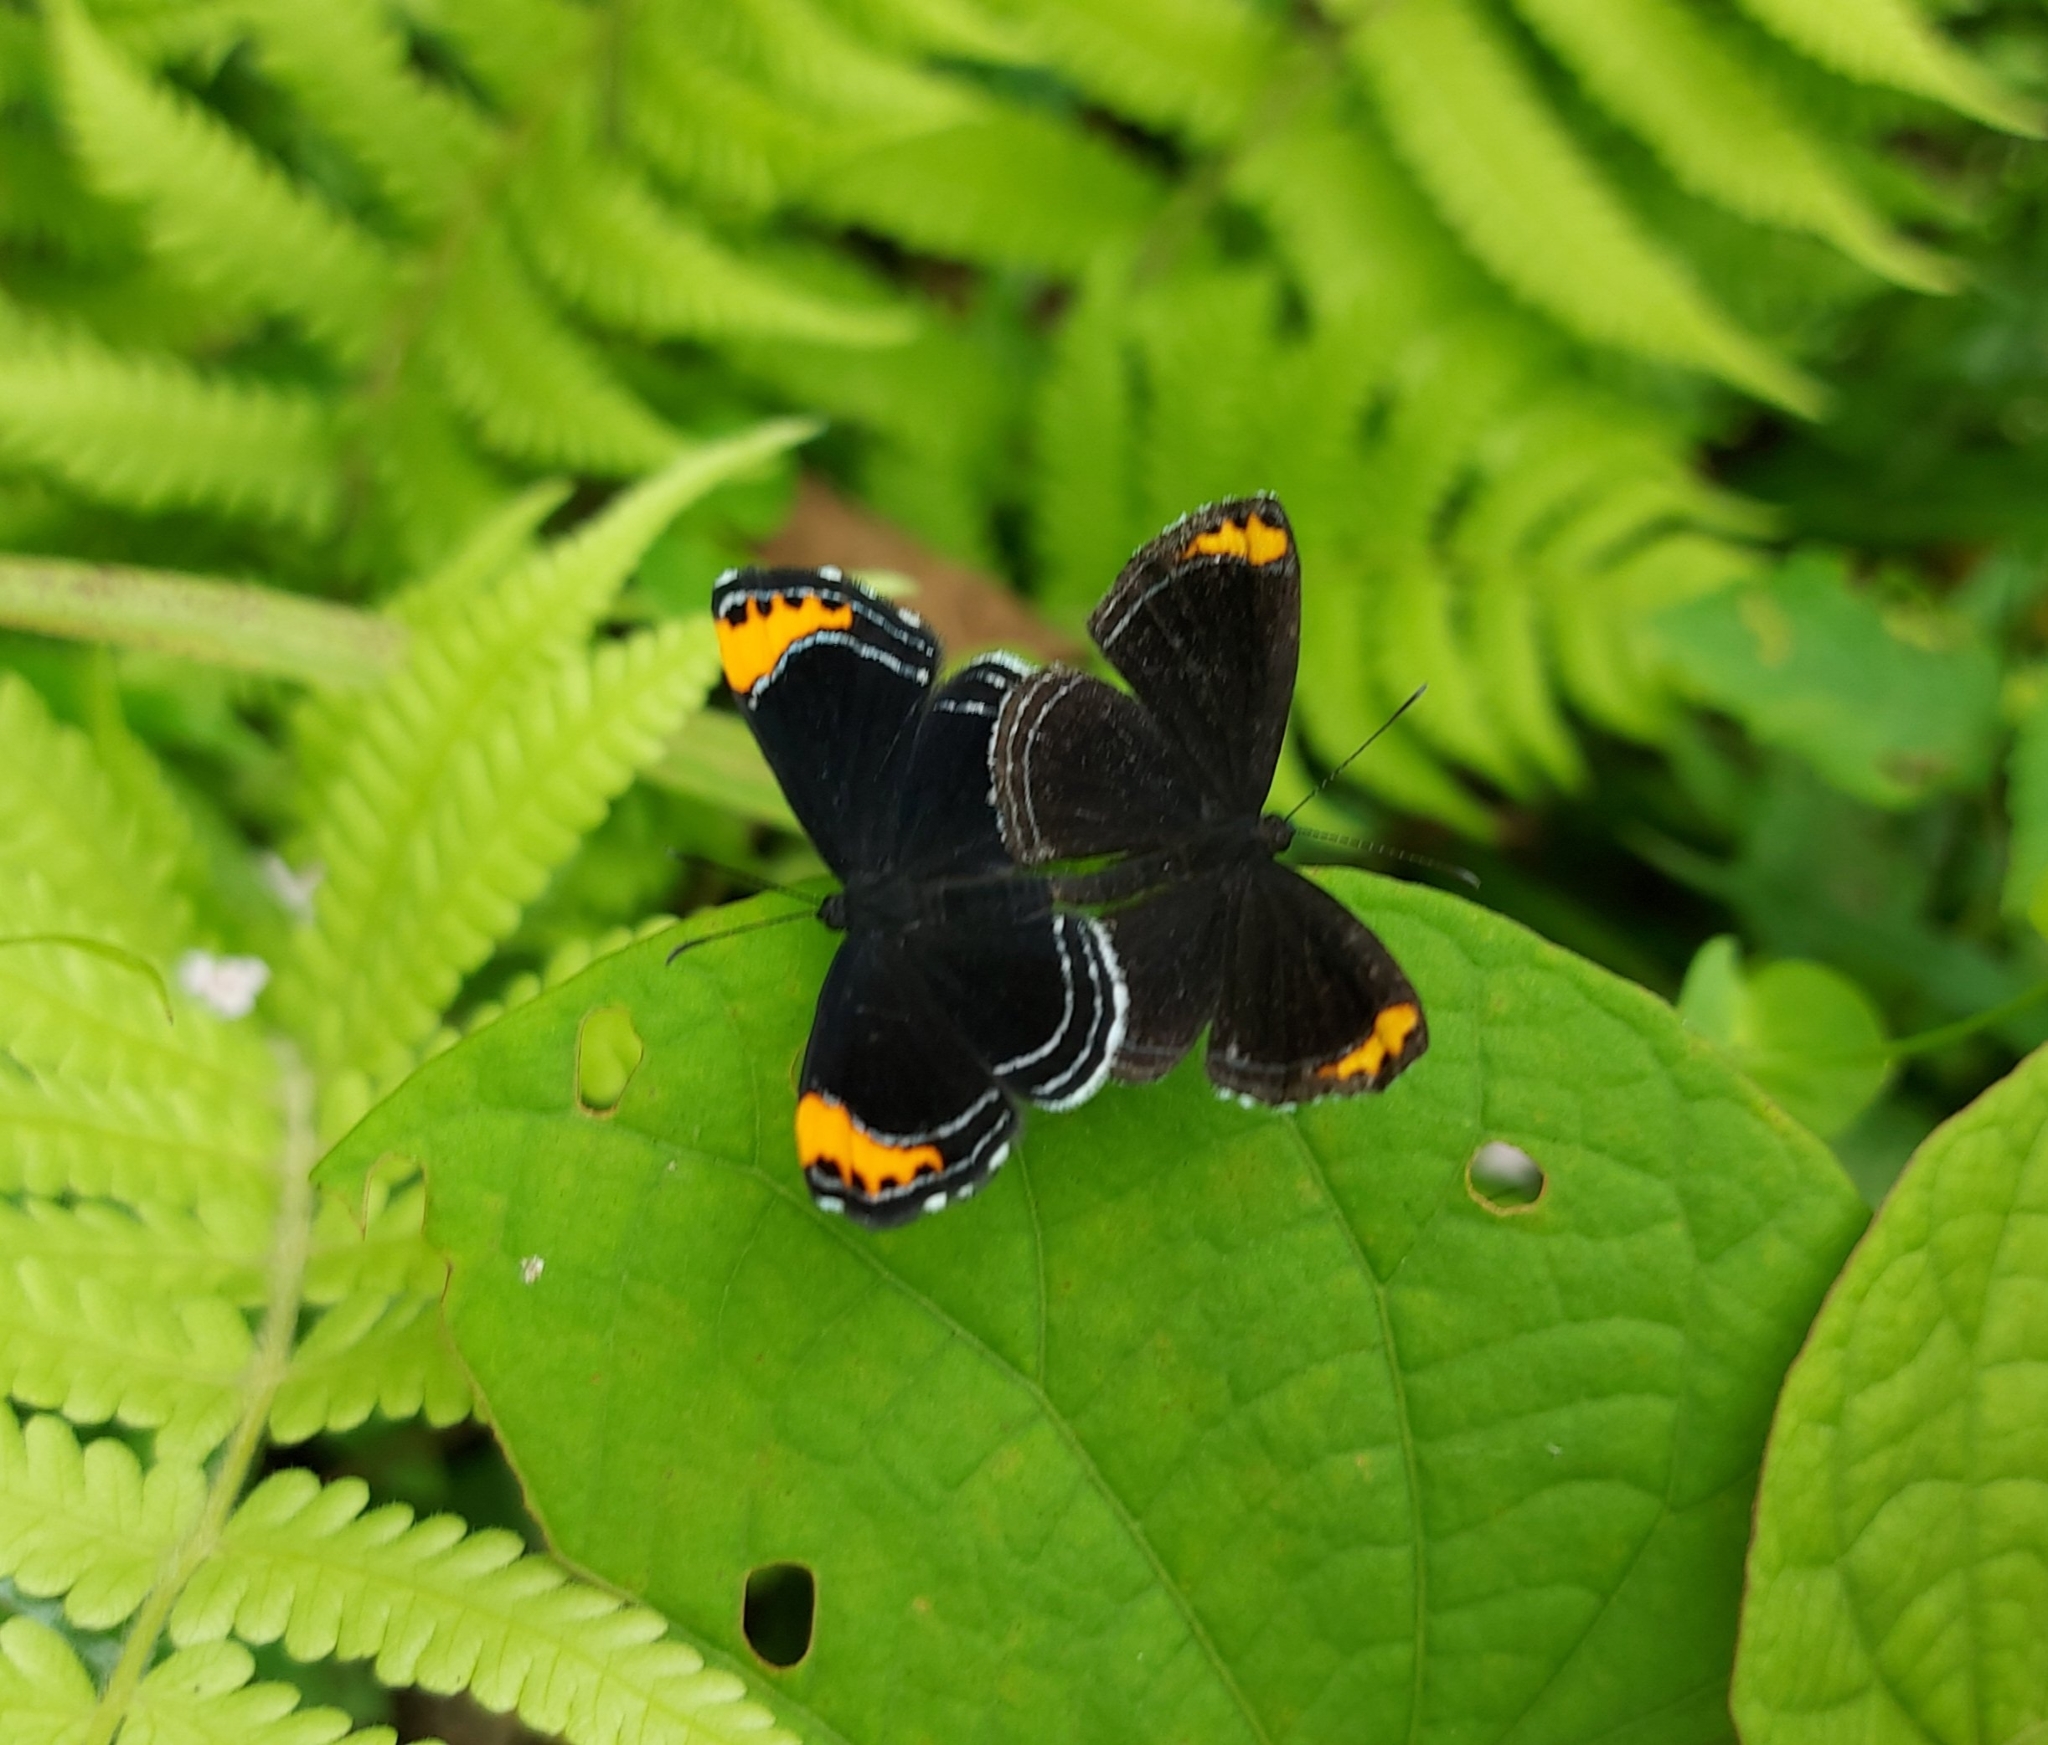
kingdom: Animalia
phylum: Arthropoda
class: Insecta
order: Lepidoptera
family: Riodinidae
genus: Nelone
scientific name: Nelone cadmeis
